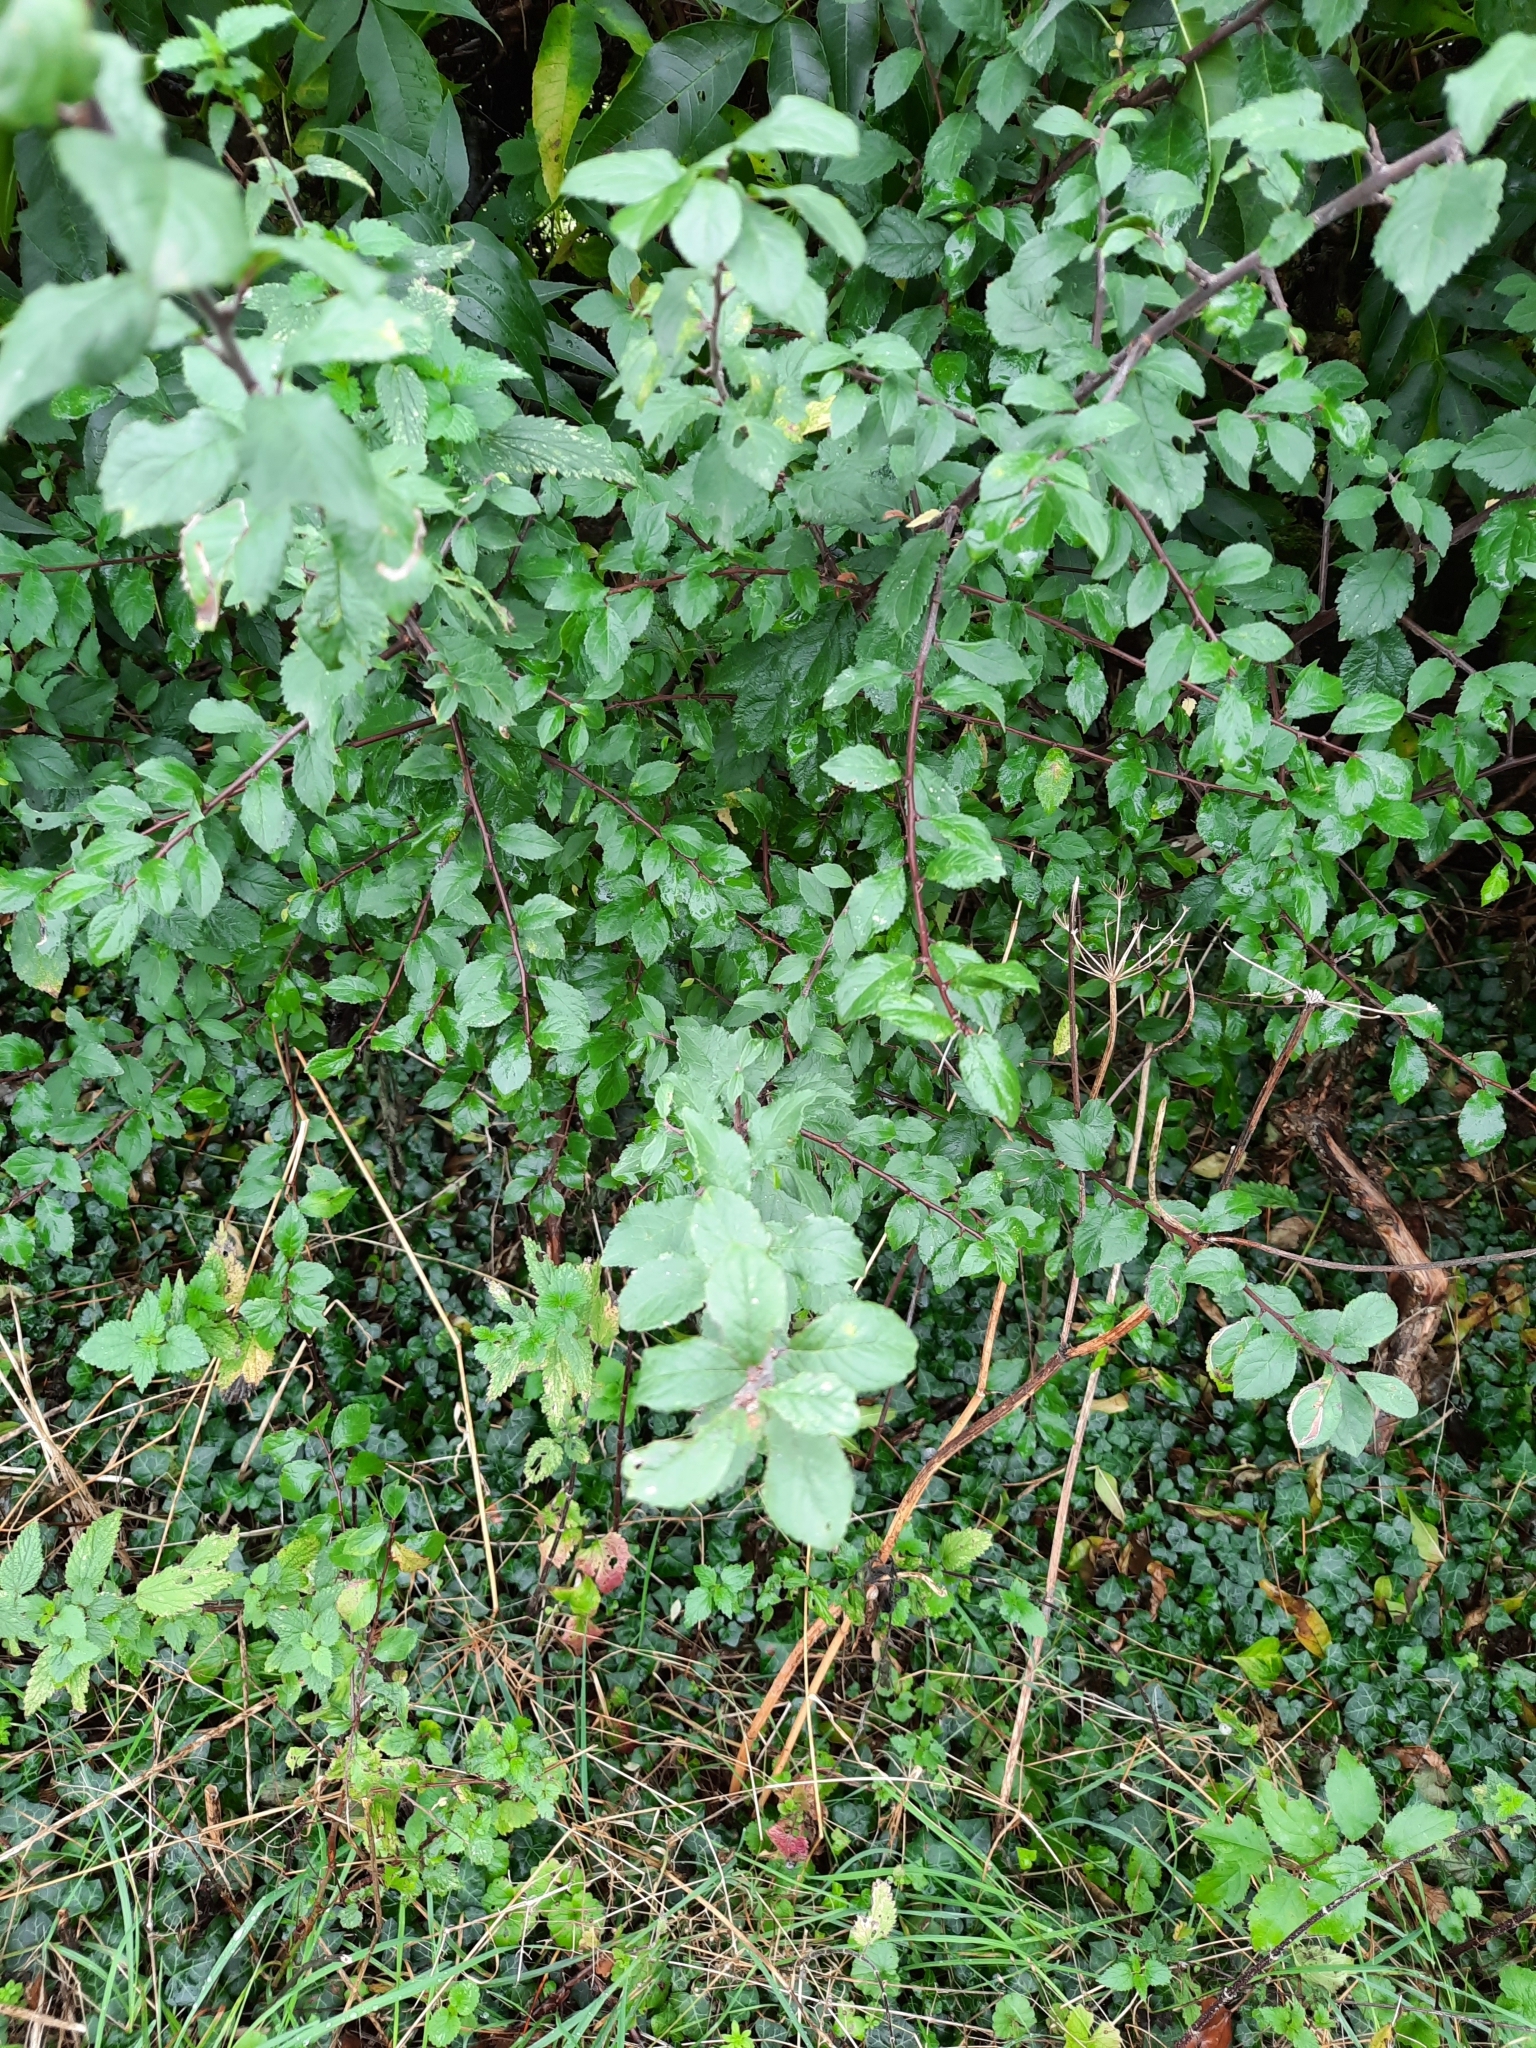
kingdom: Plantae
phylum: Tracheophyta
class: Magnoliopsida
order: Rosales
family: Rosaceae
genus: Prunus
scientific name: Prunus spinosa
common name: Blackthorn
